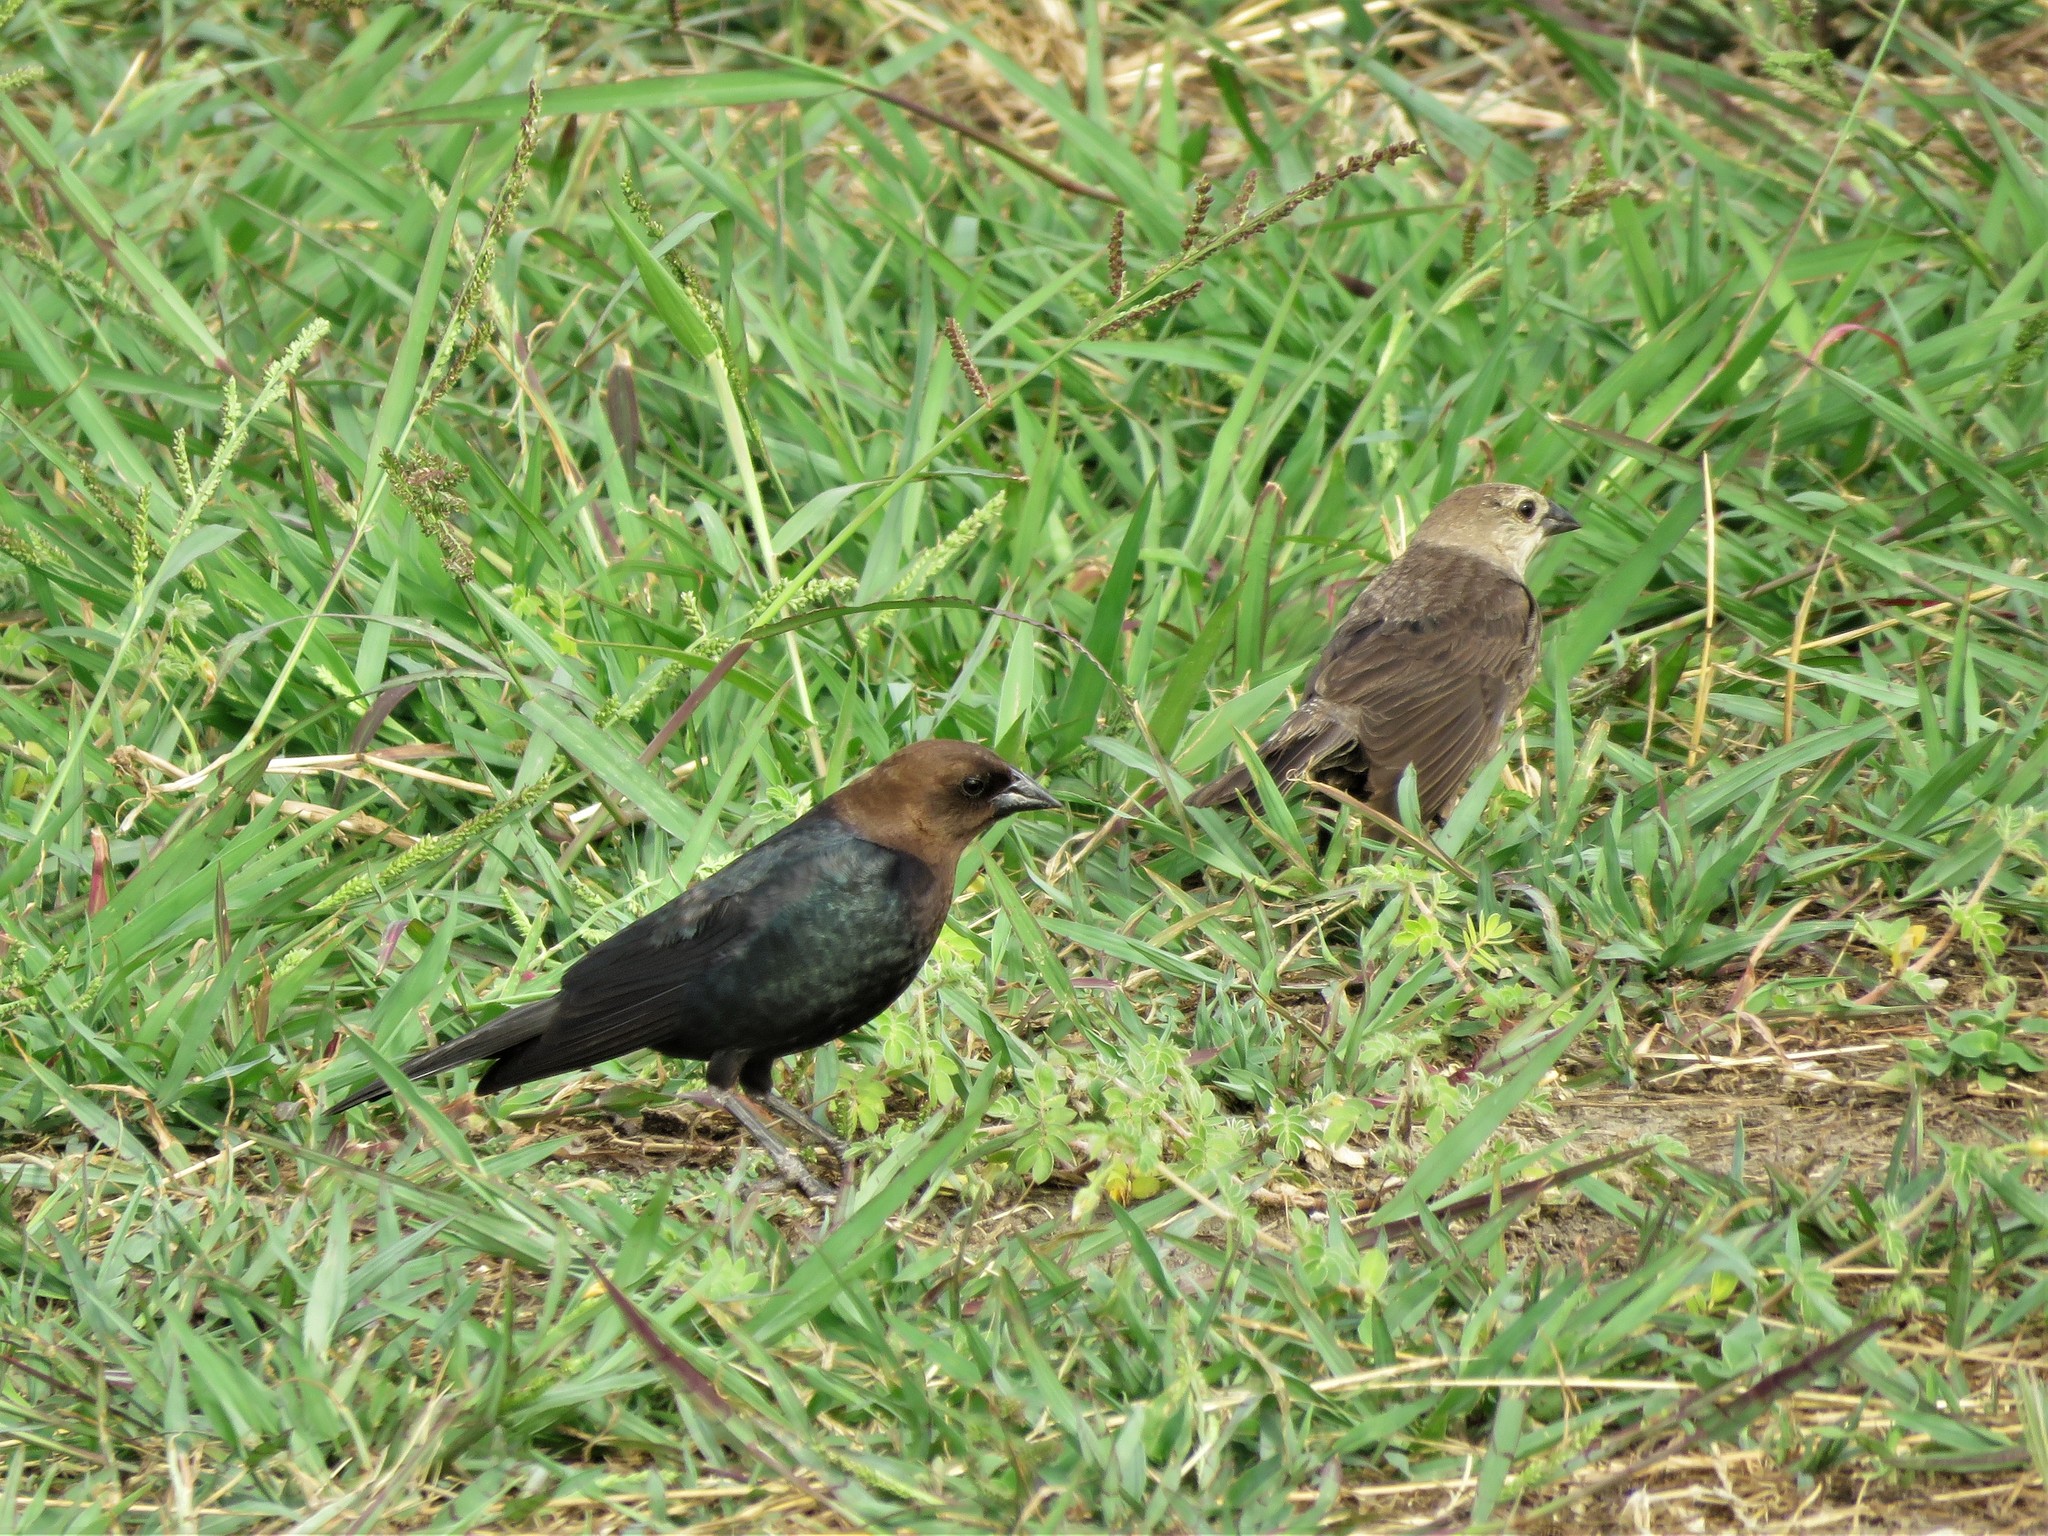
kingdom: Animalia
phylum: Chordata
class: Aves
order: Passeriformes
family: Icteridae
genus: Molothrus
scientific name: Molothrus ater
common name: Brown-headed cowbird
